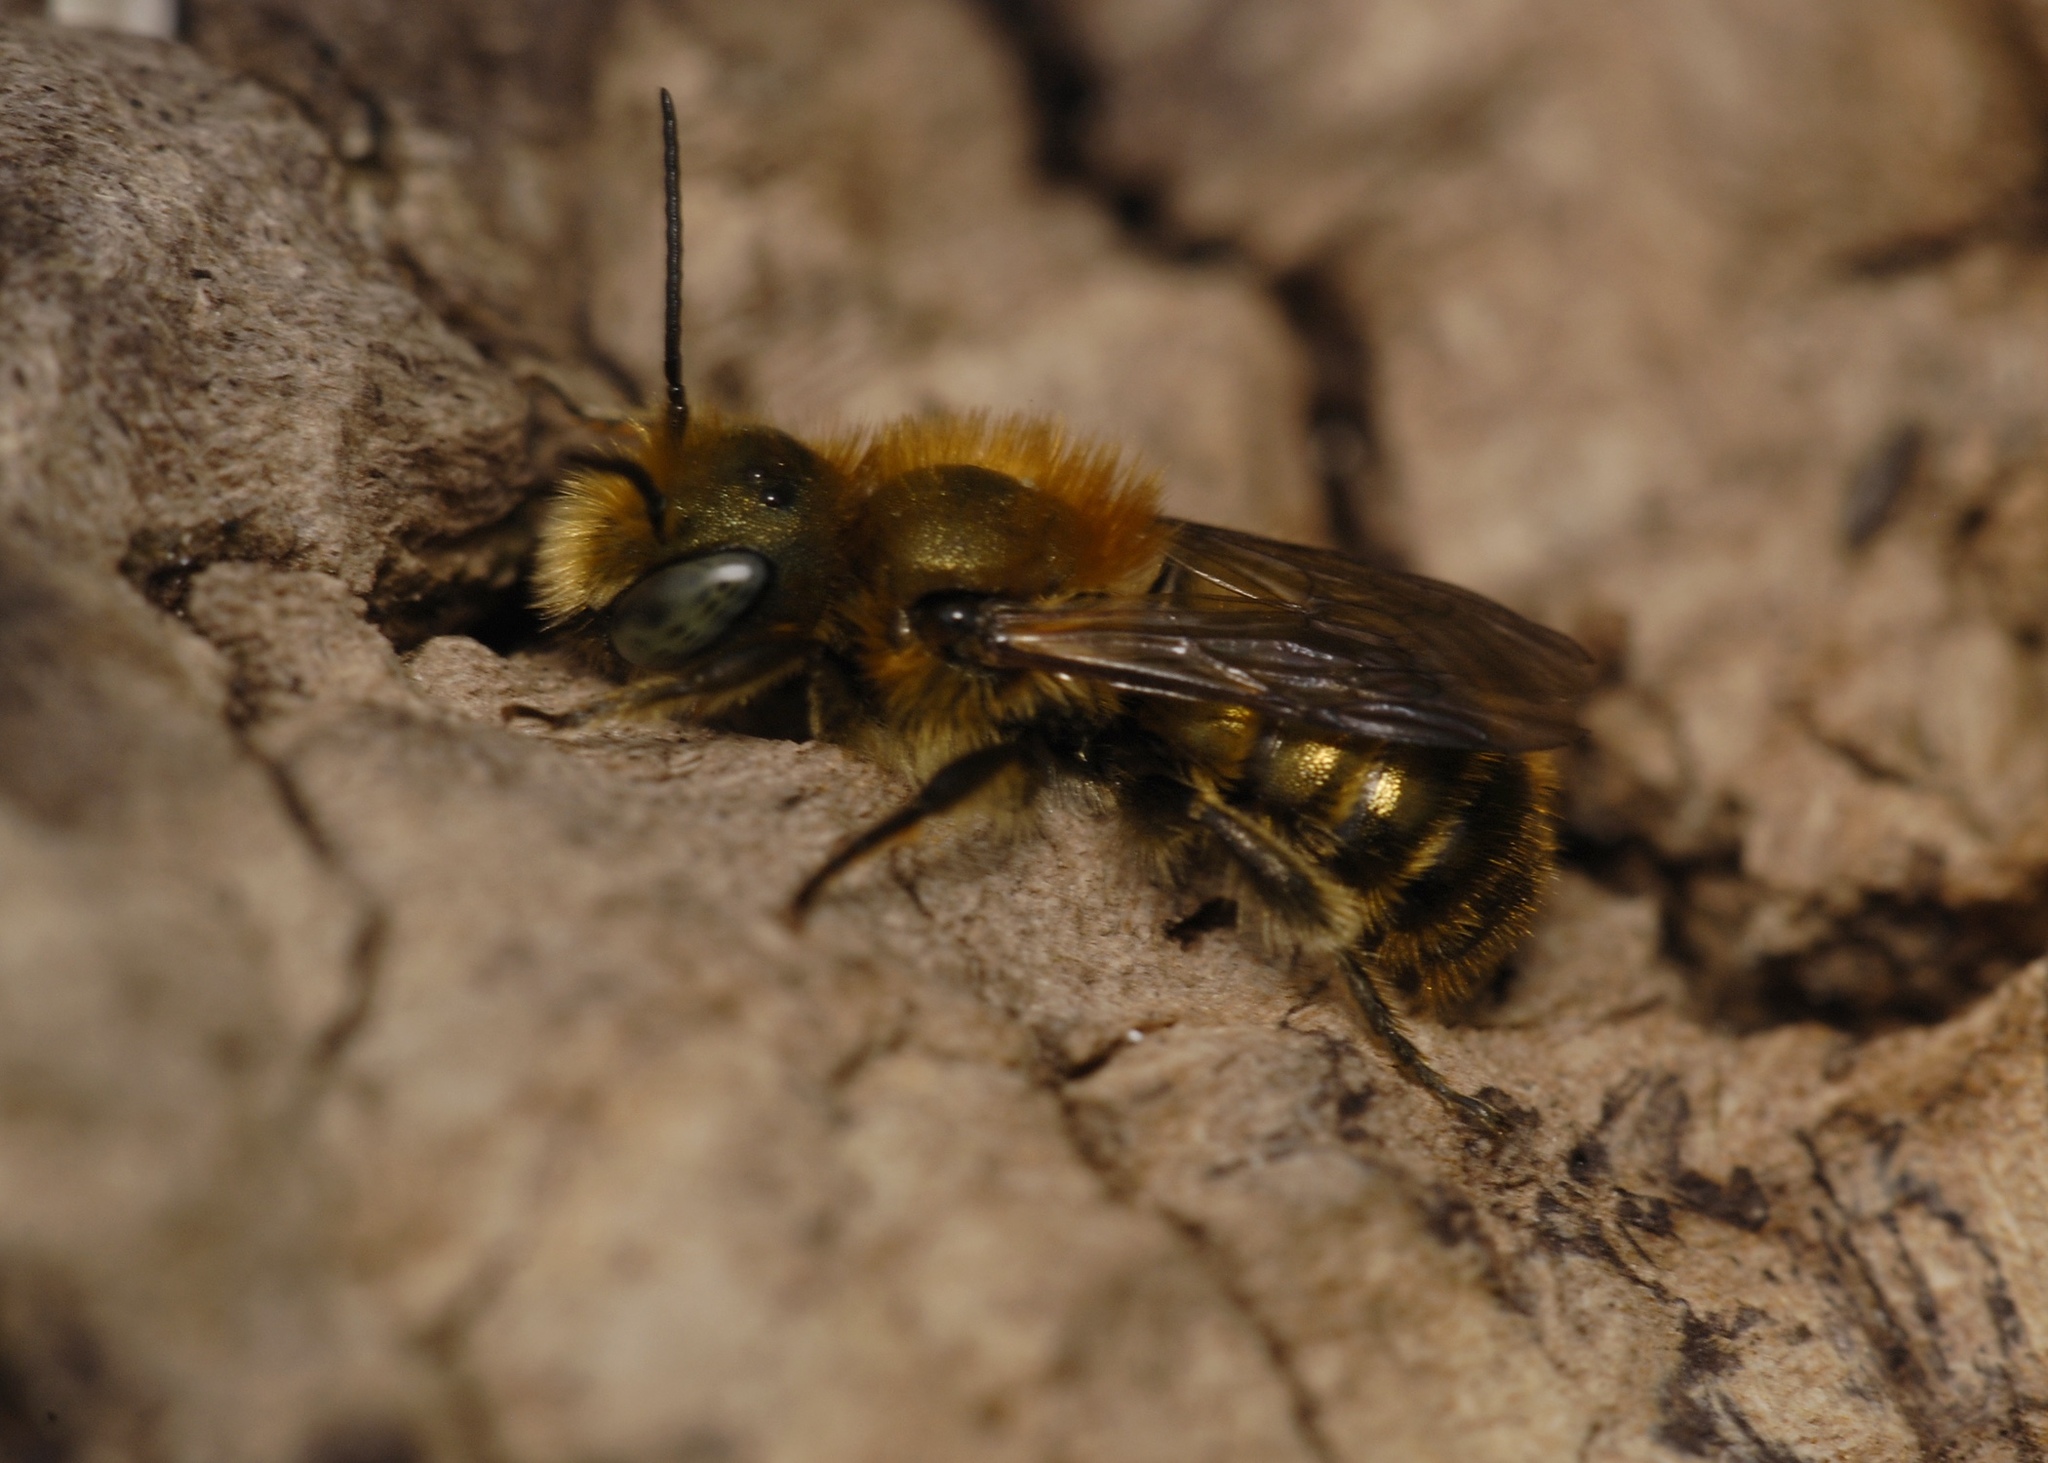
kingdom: Animalia
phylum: Arthropoda
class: Insecta
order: Hymenoptera
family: Megachilidae
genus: Osmia
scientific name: Osmia caerulescens
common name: Blue mason bee
